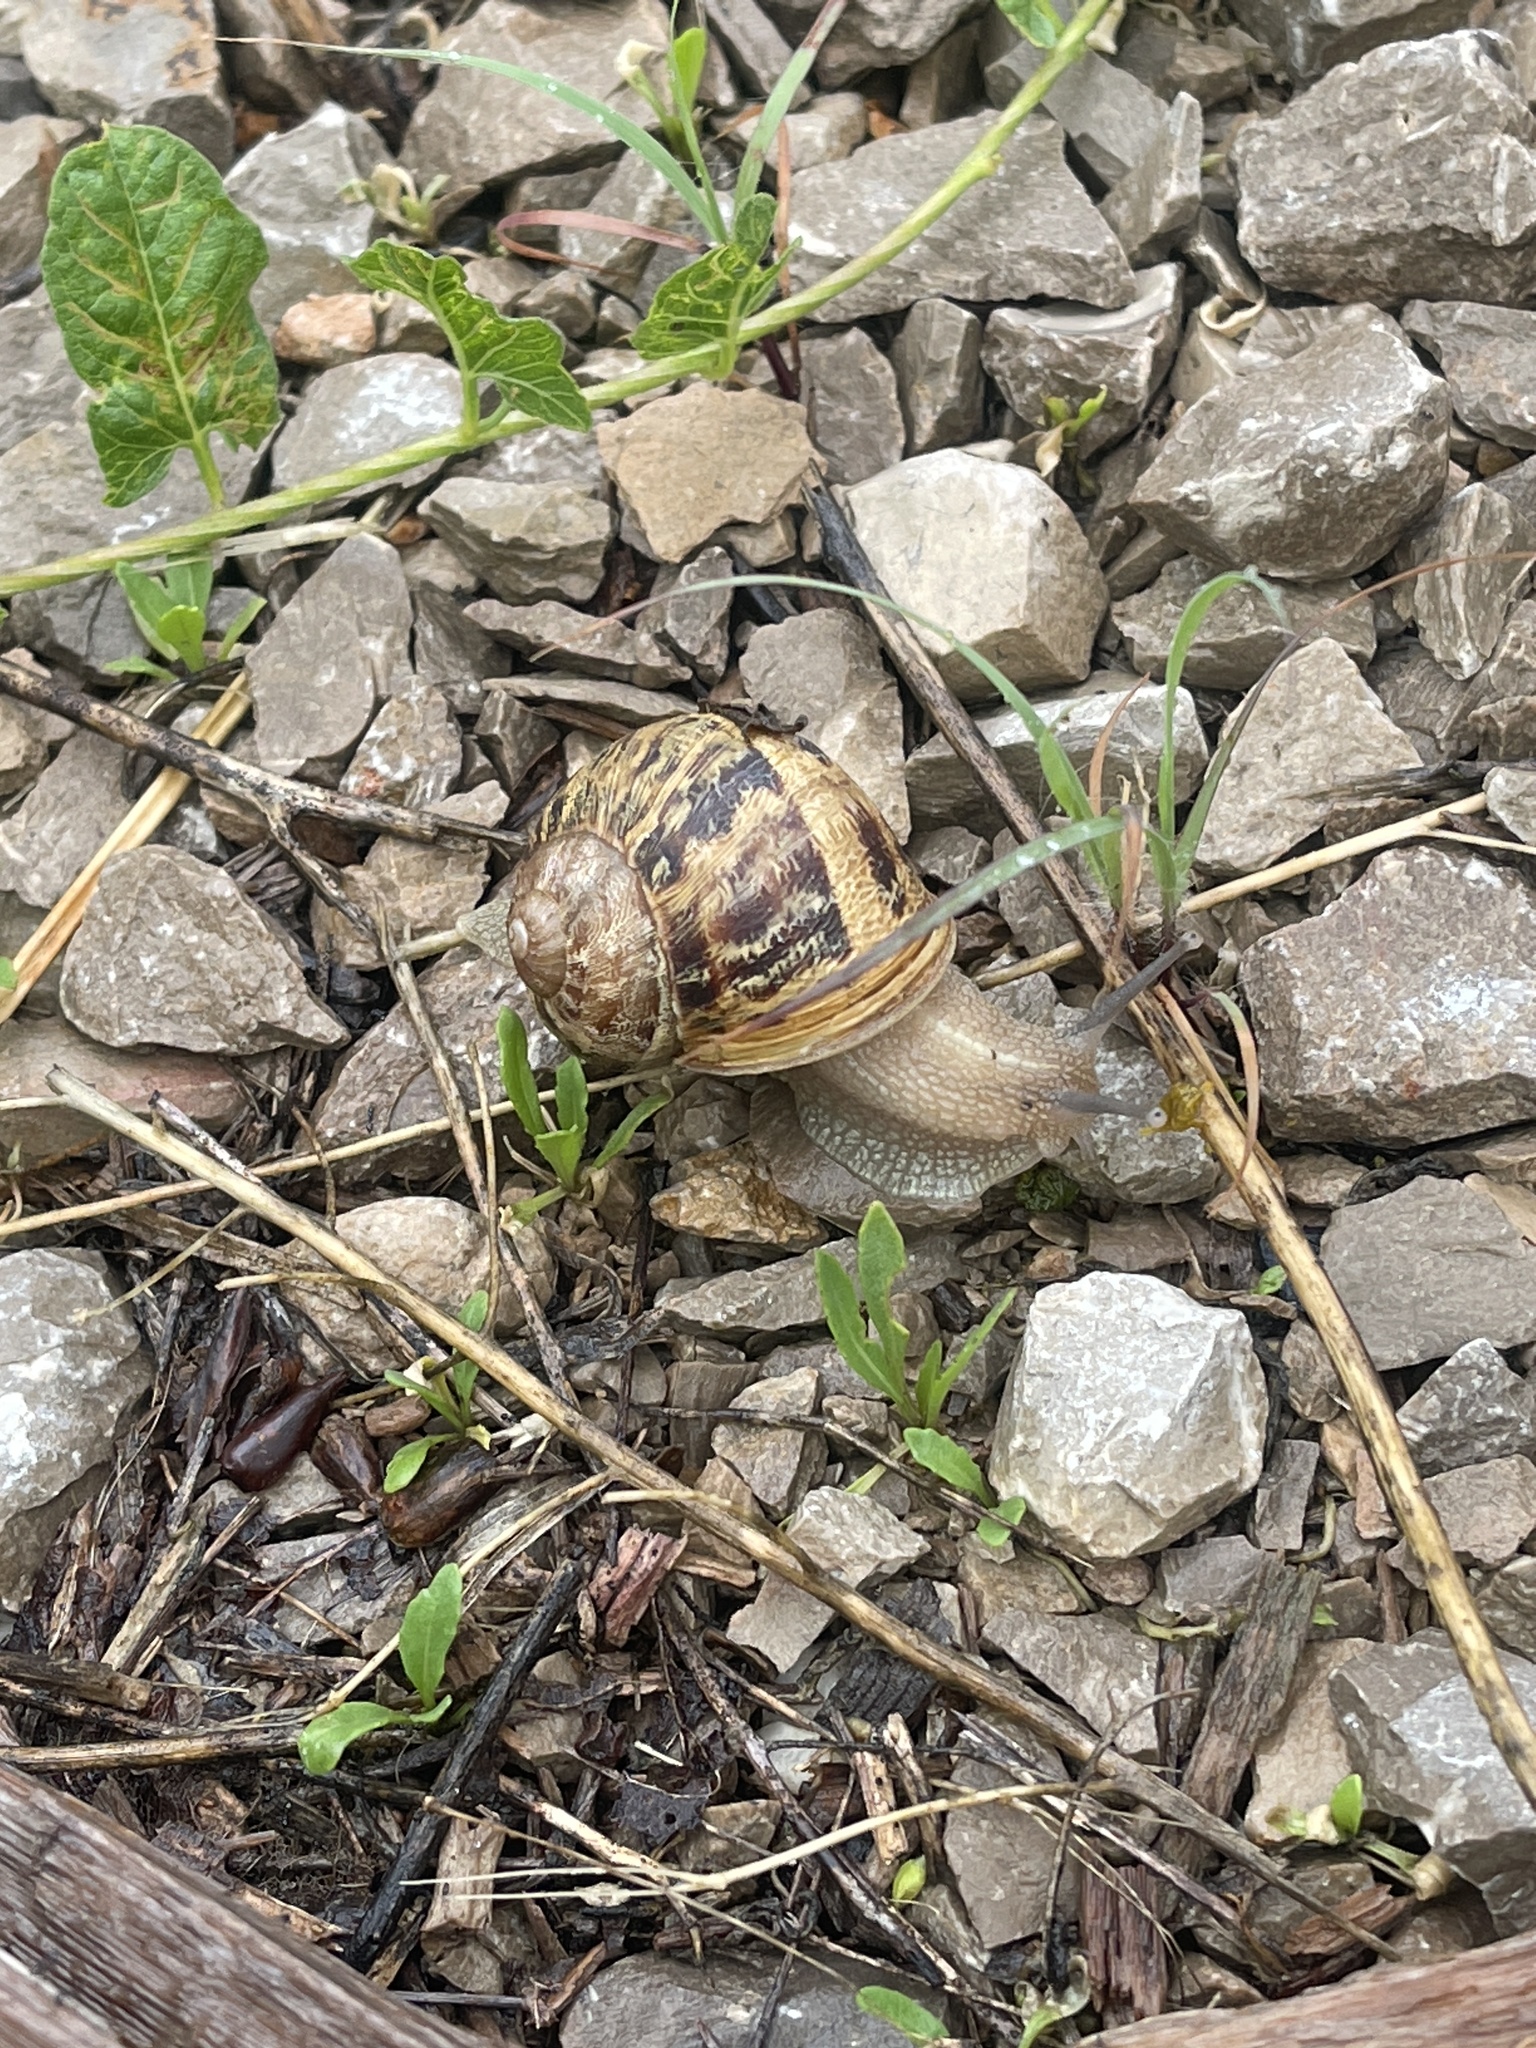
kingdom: Animalia
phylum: Mollusca
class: Gastropoda
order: Stylommatophora
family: Helicidae
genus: Cornu
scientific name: Cornu aspersum
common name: Brown garden snail
